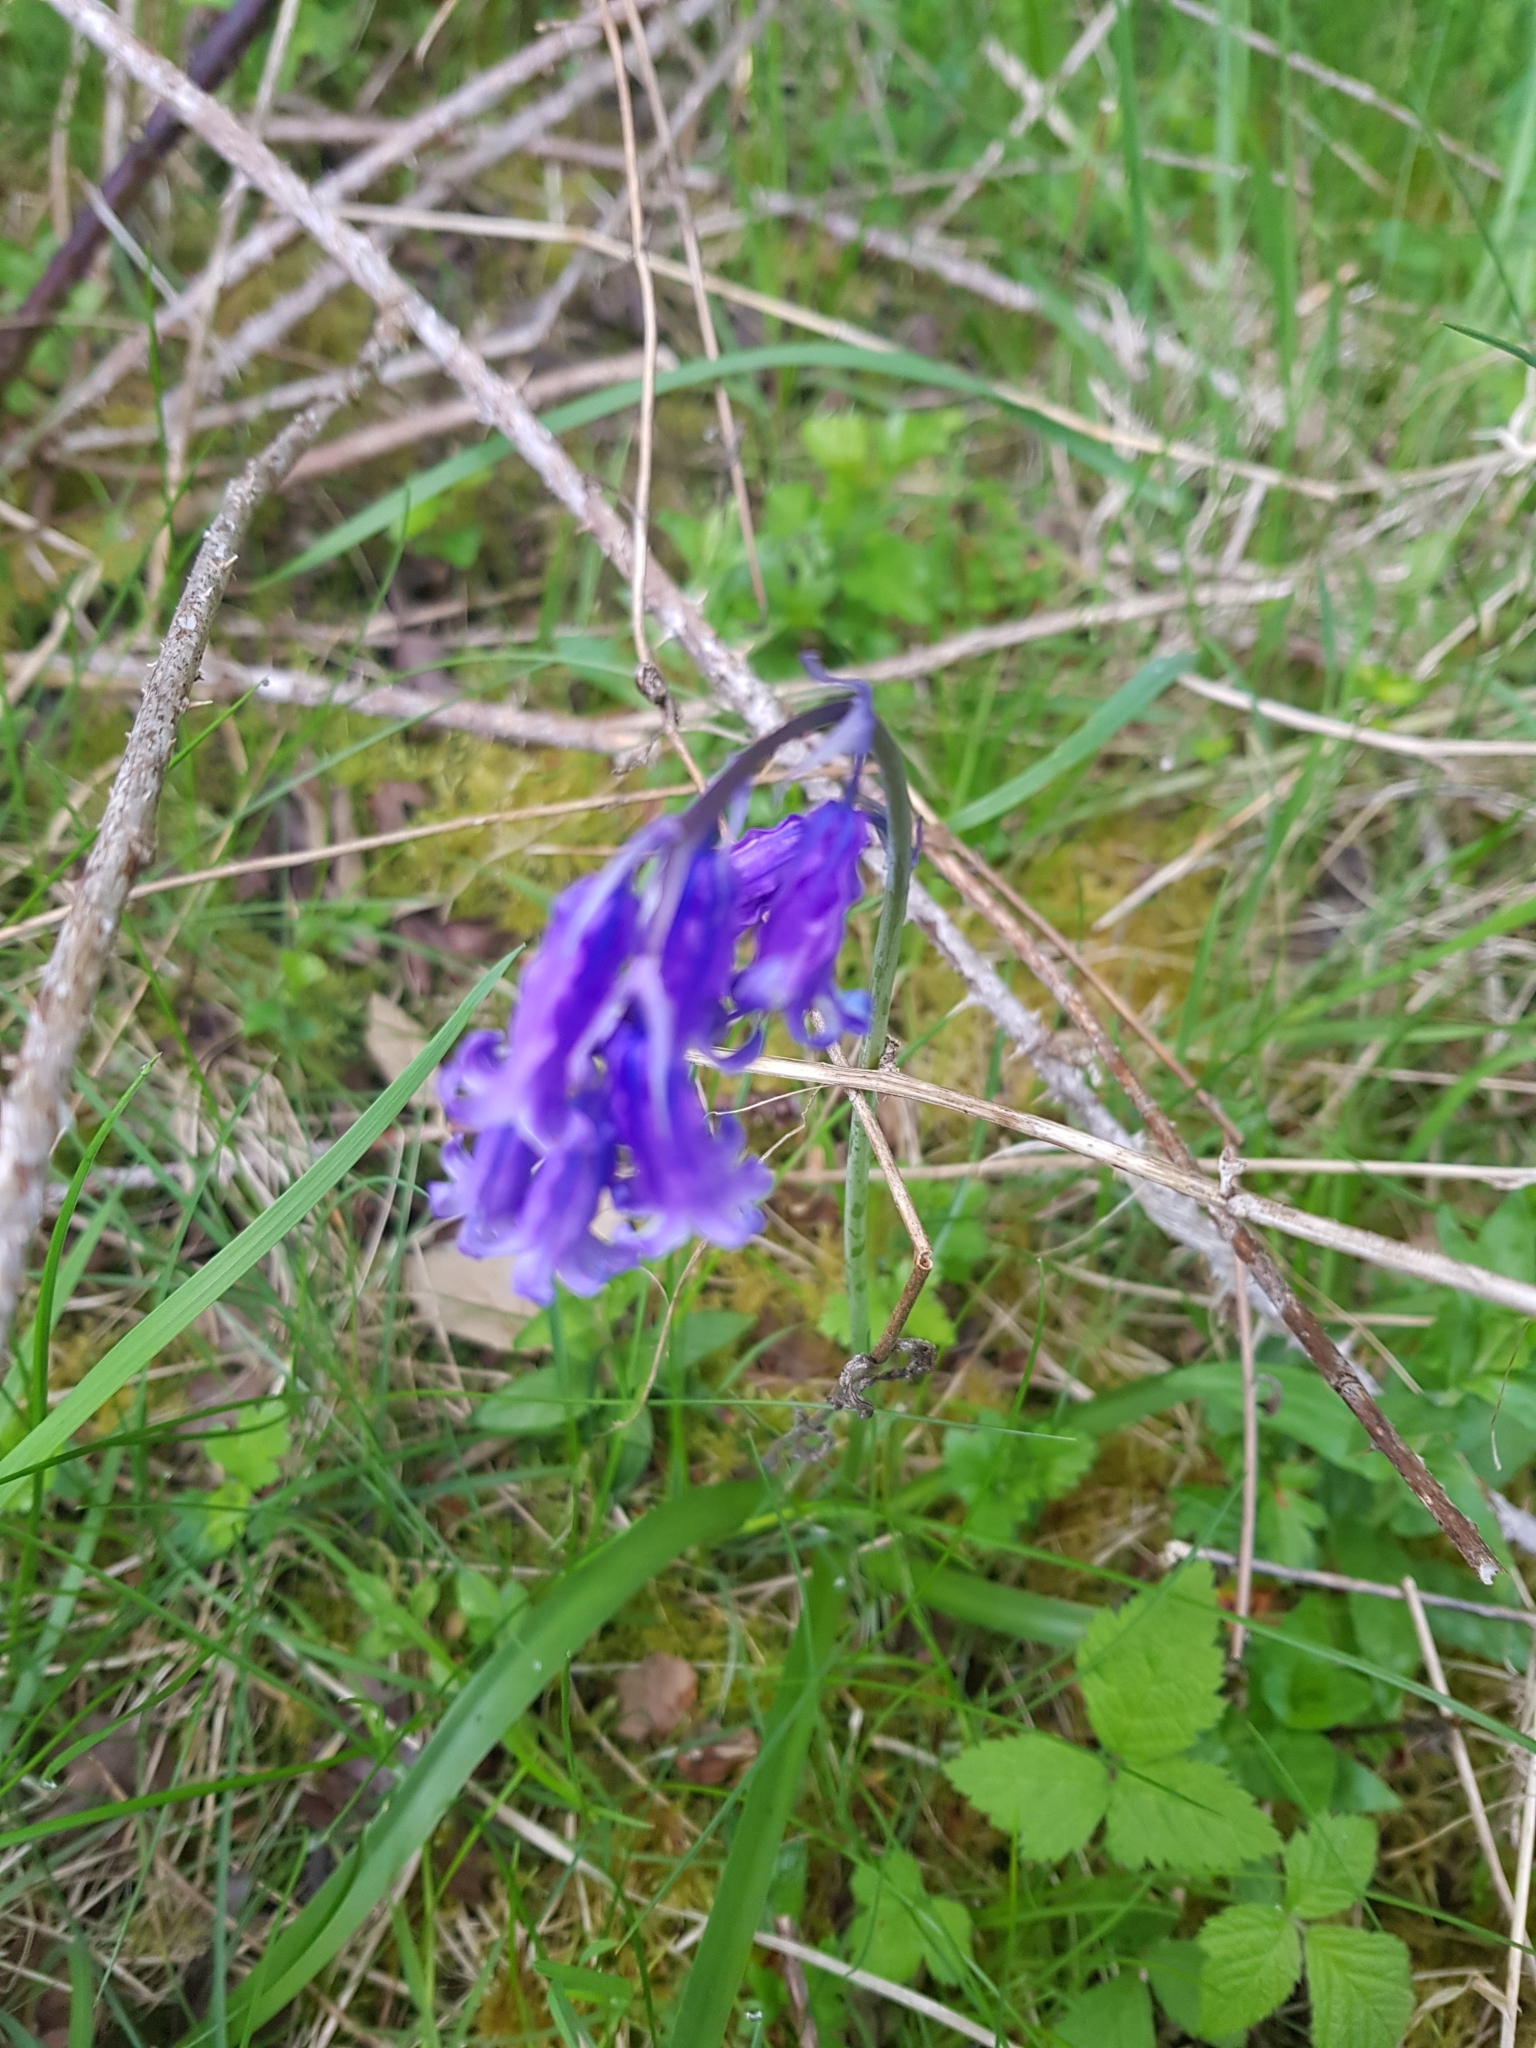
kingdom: Plantae
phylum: Tracheophyta
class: Liliopsida
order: Asparagales
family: Asparagaceae
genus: Hyacinthoides
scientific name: Hyacinthoides non-scripta
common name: Bluebell
